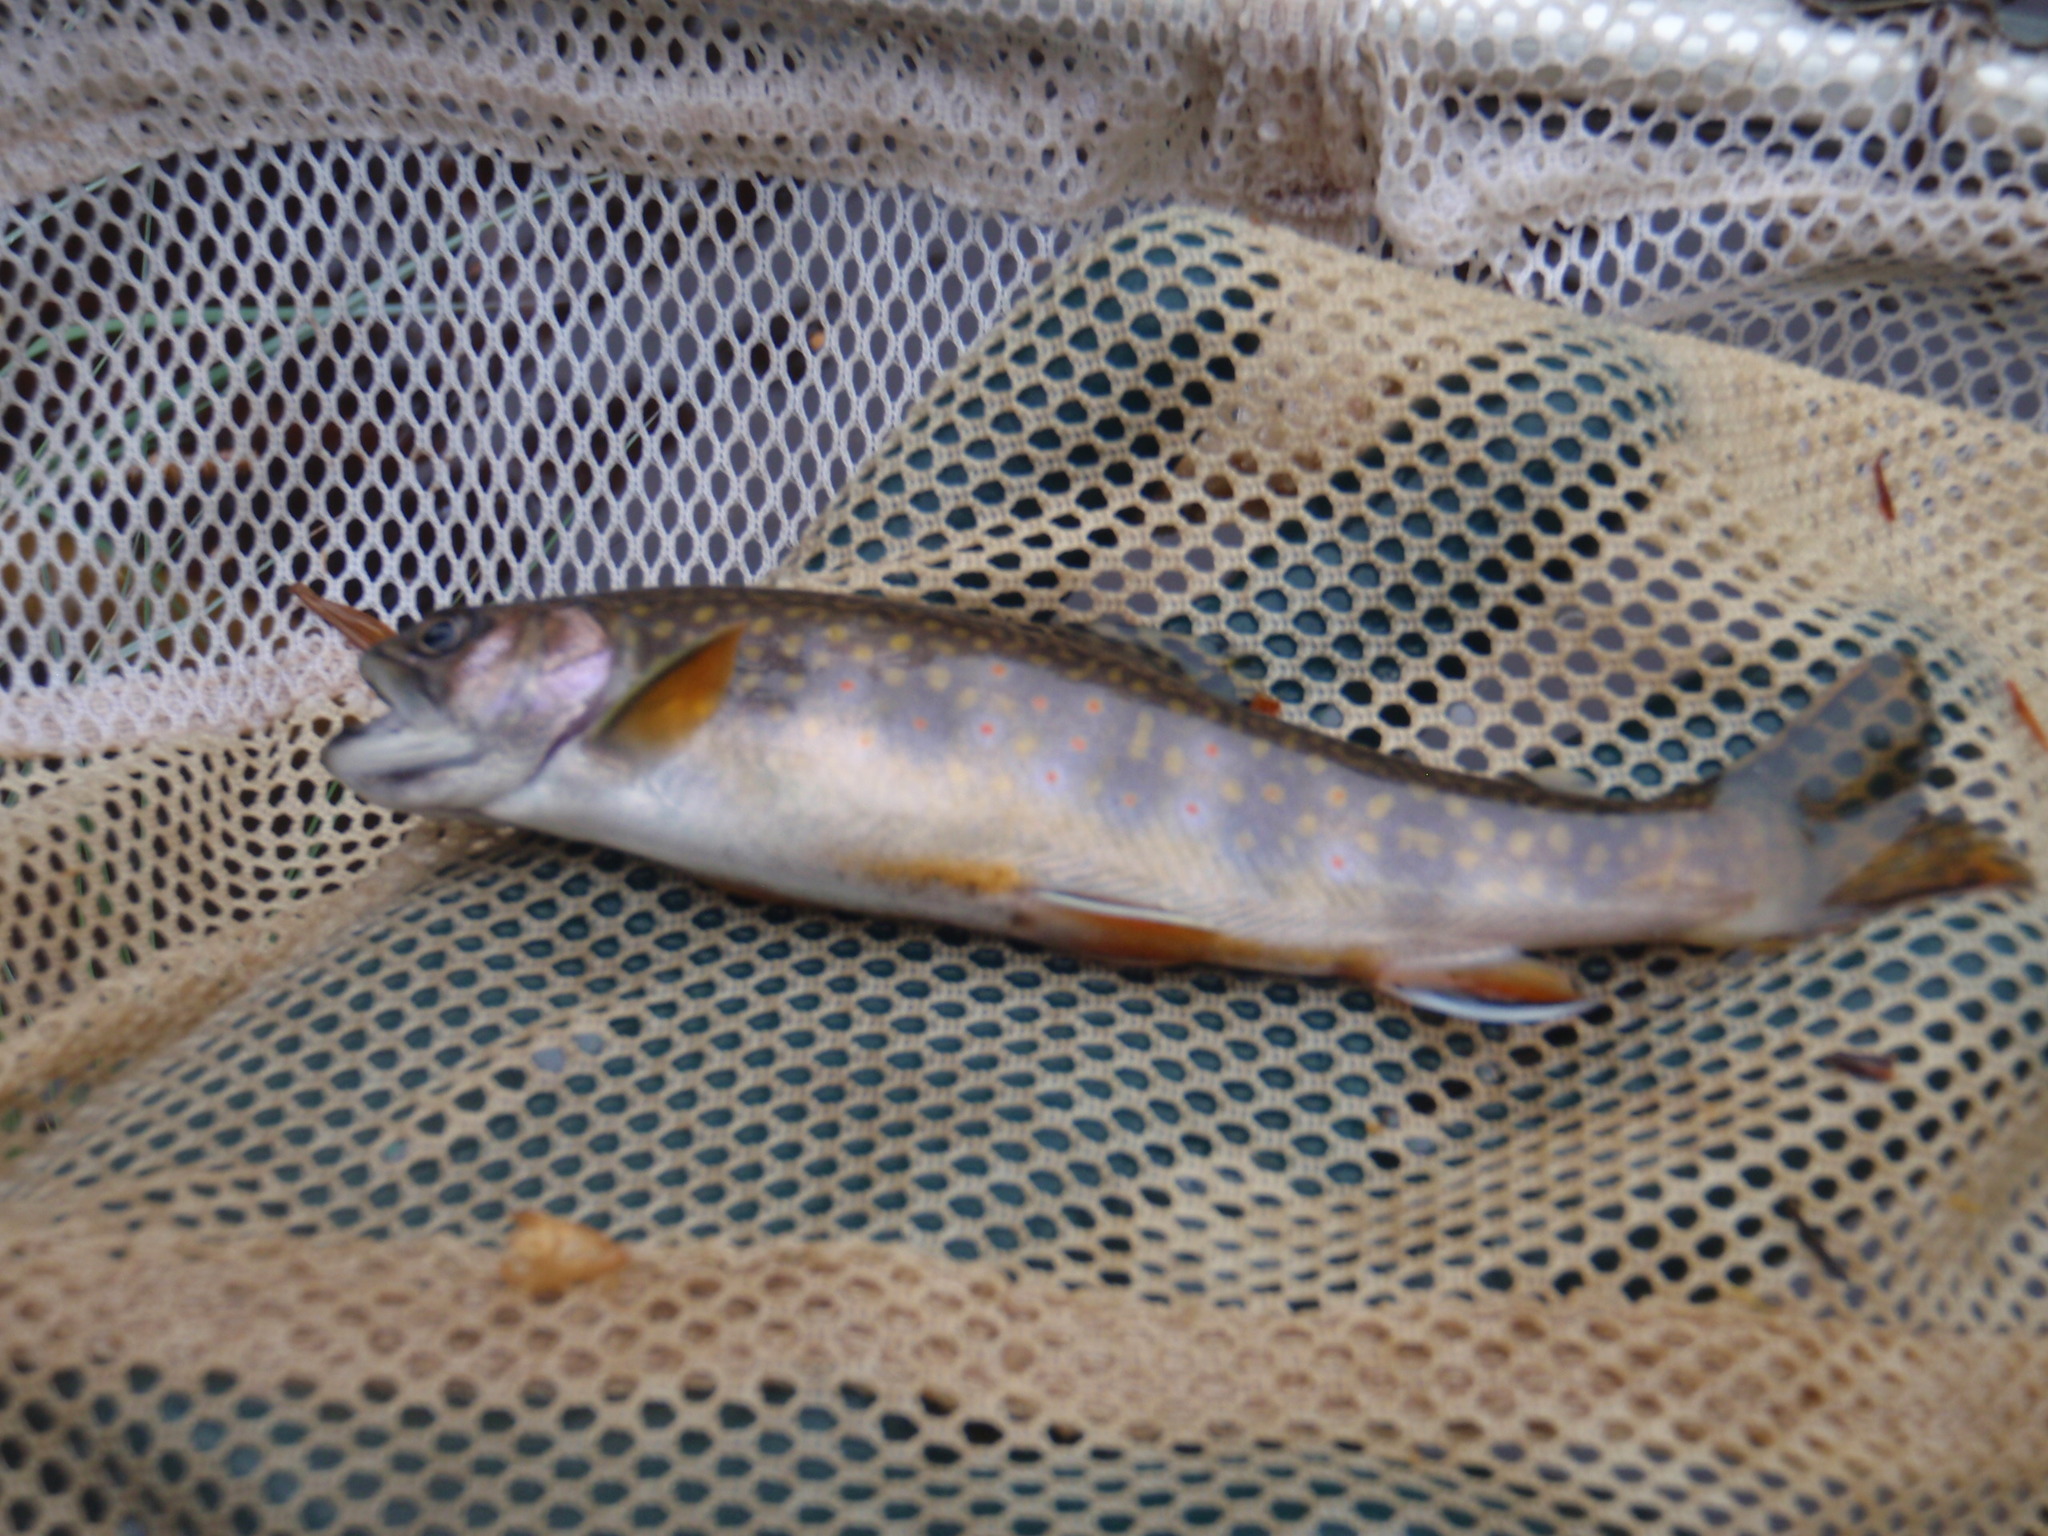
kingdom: Animalia
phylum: Chordata
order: Salmoniformes
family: Salmonidae
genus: Salvelinus
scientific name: Salvelinus fontinalis
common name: Brook trout
